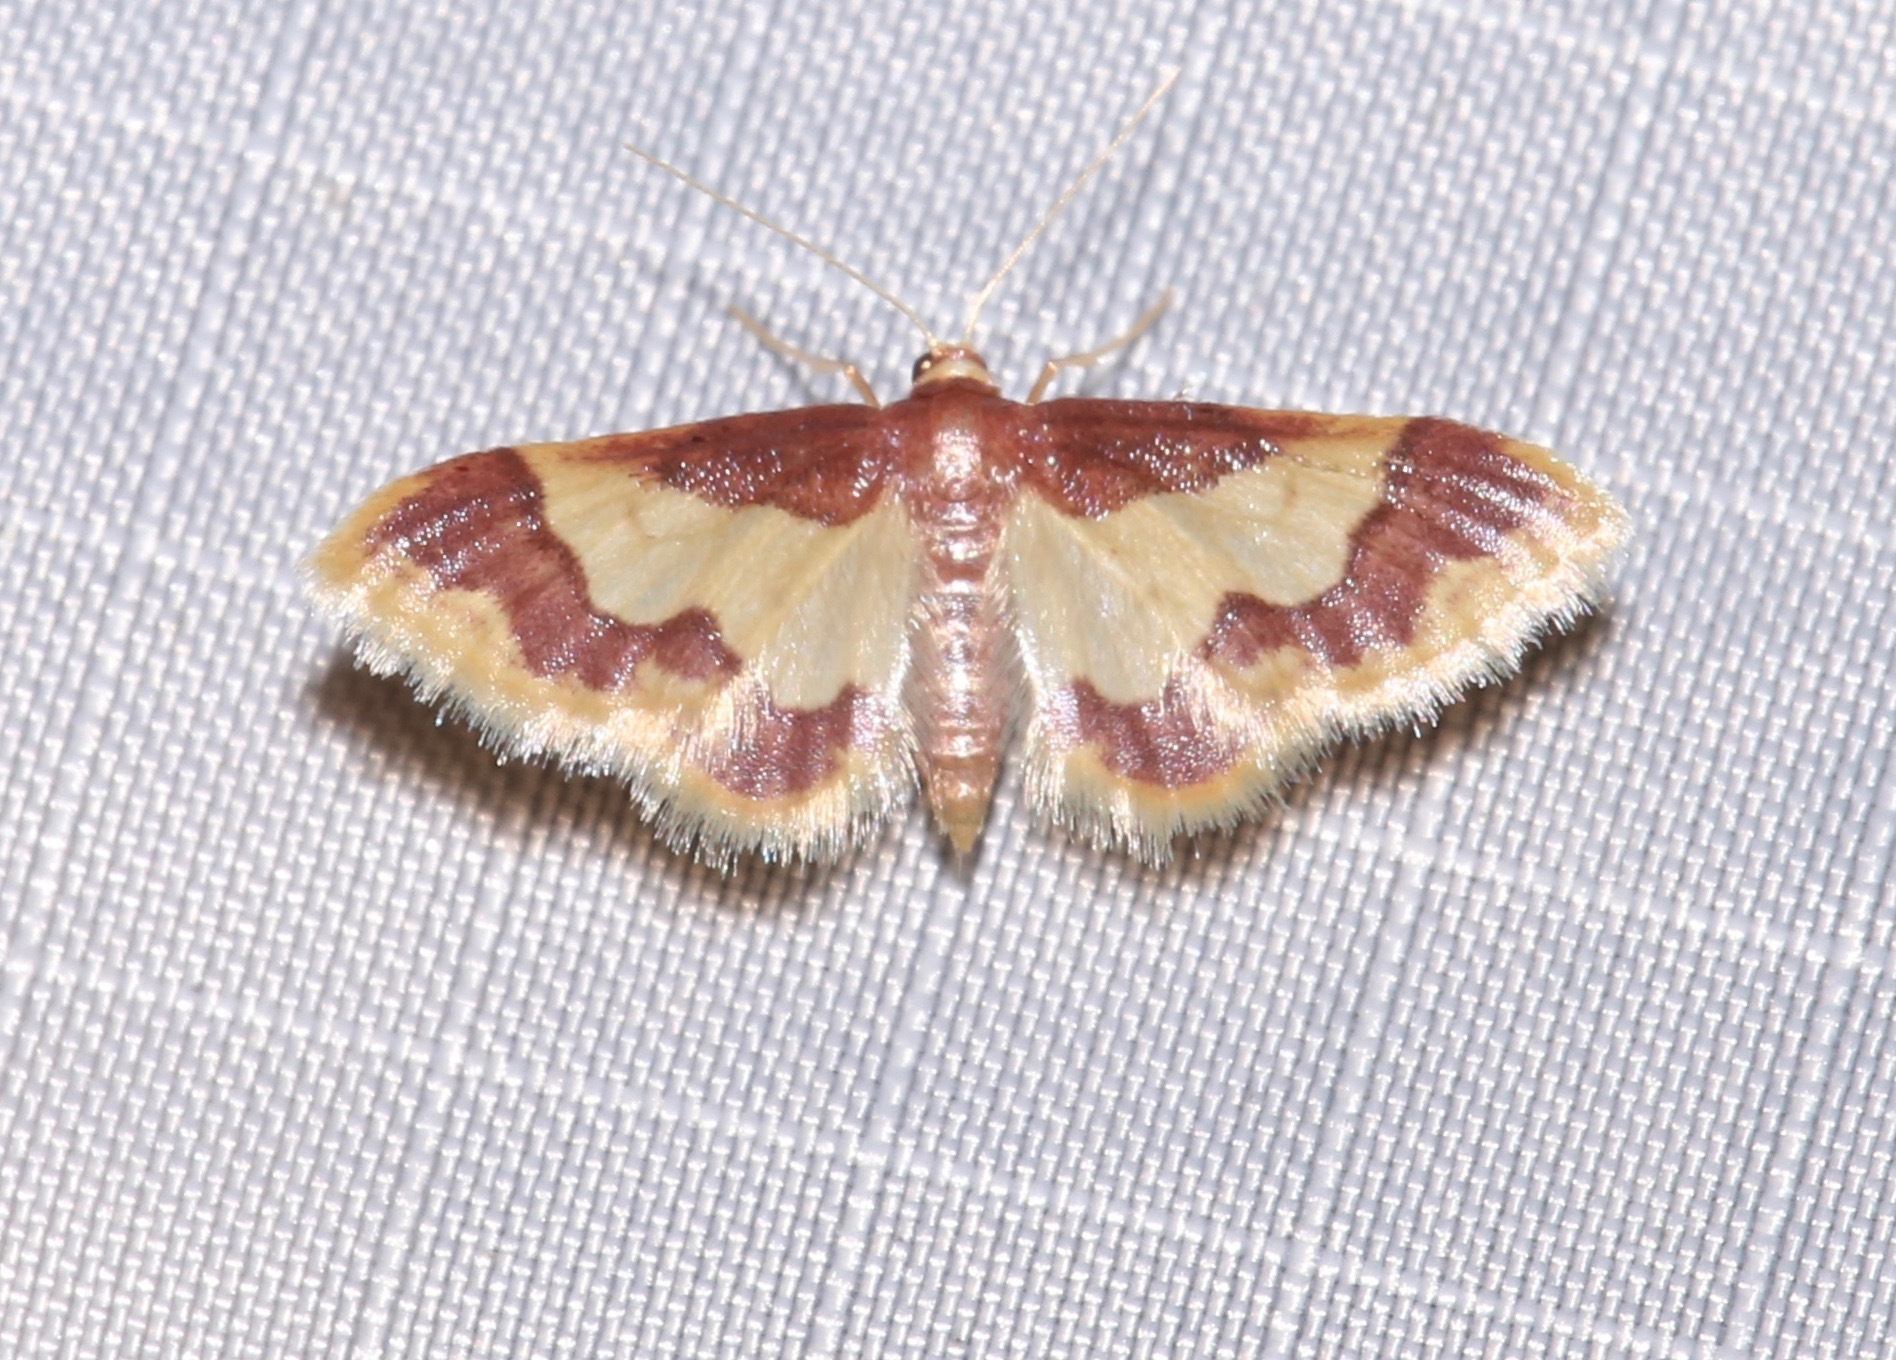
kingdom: Animalia
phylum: Arthropoda
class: Insecta
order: Lepidoptera
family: Geometridae
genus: Idaea
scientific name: Idaea basinta
